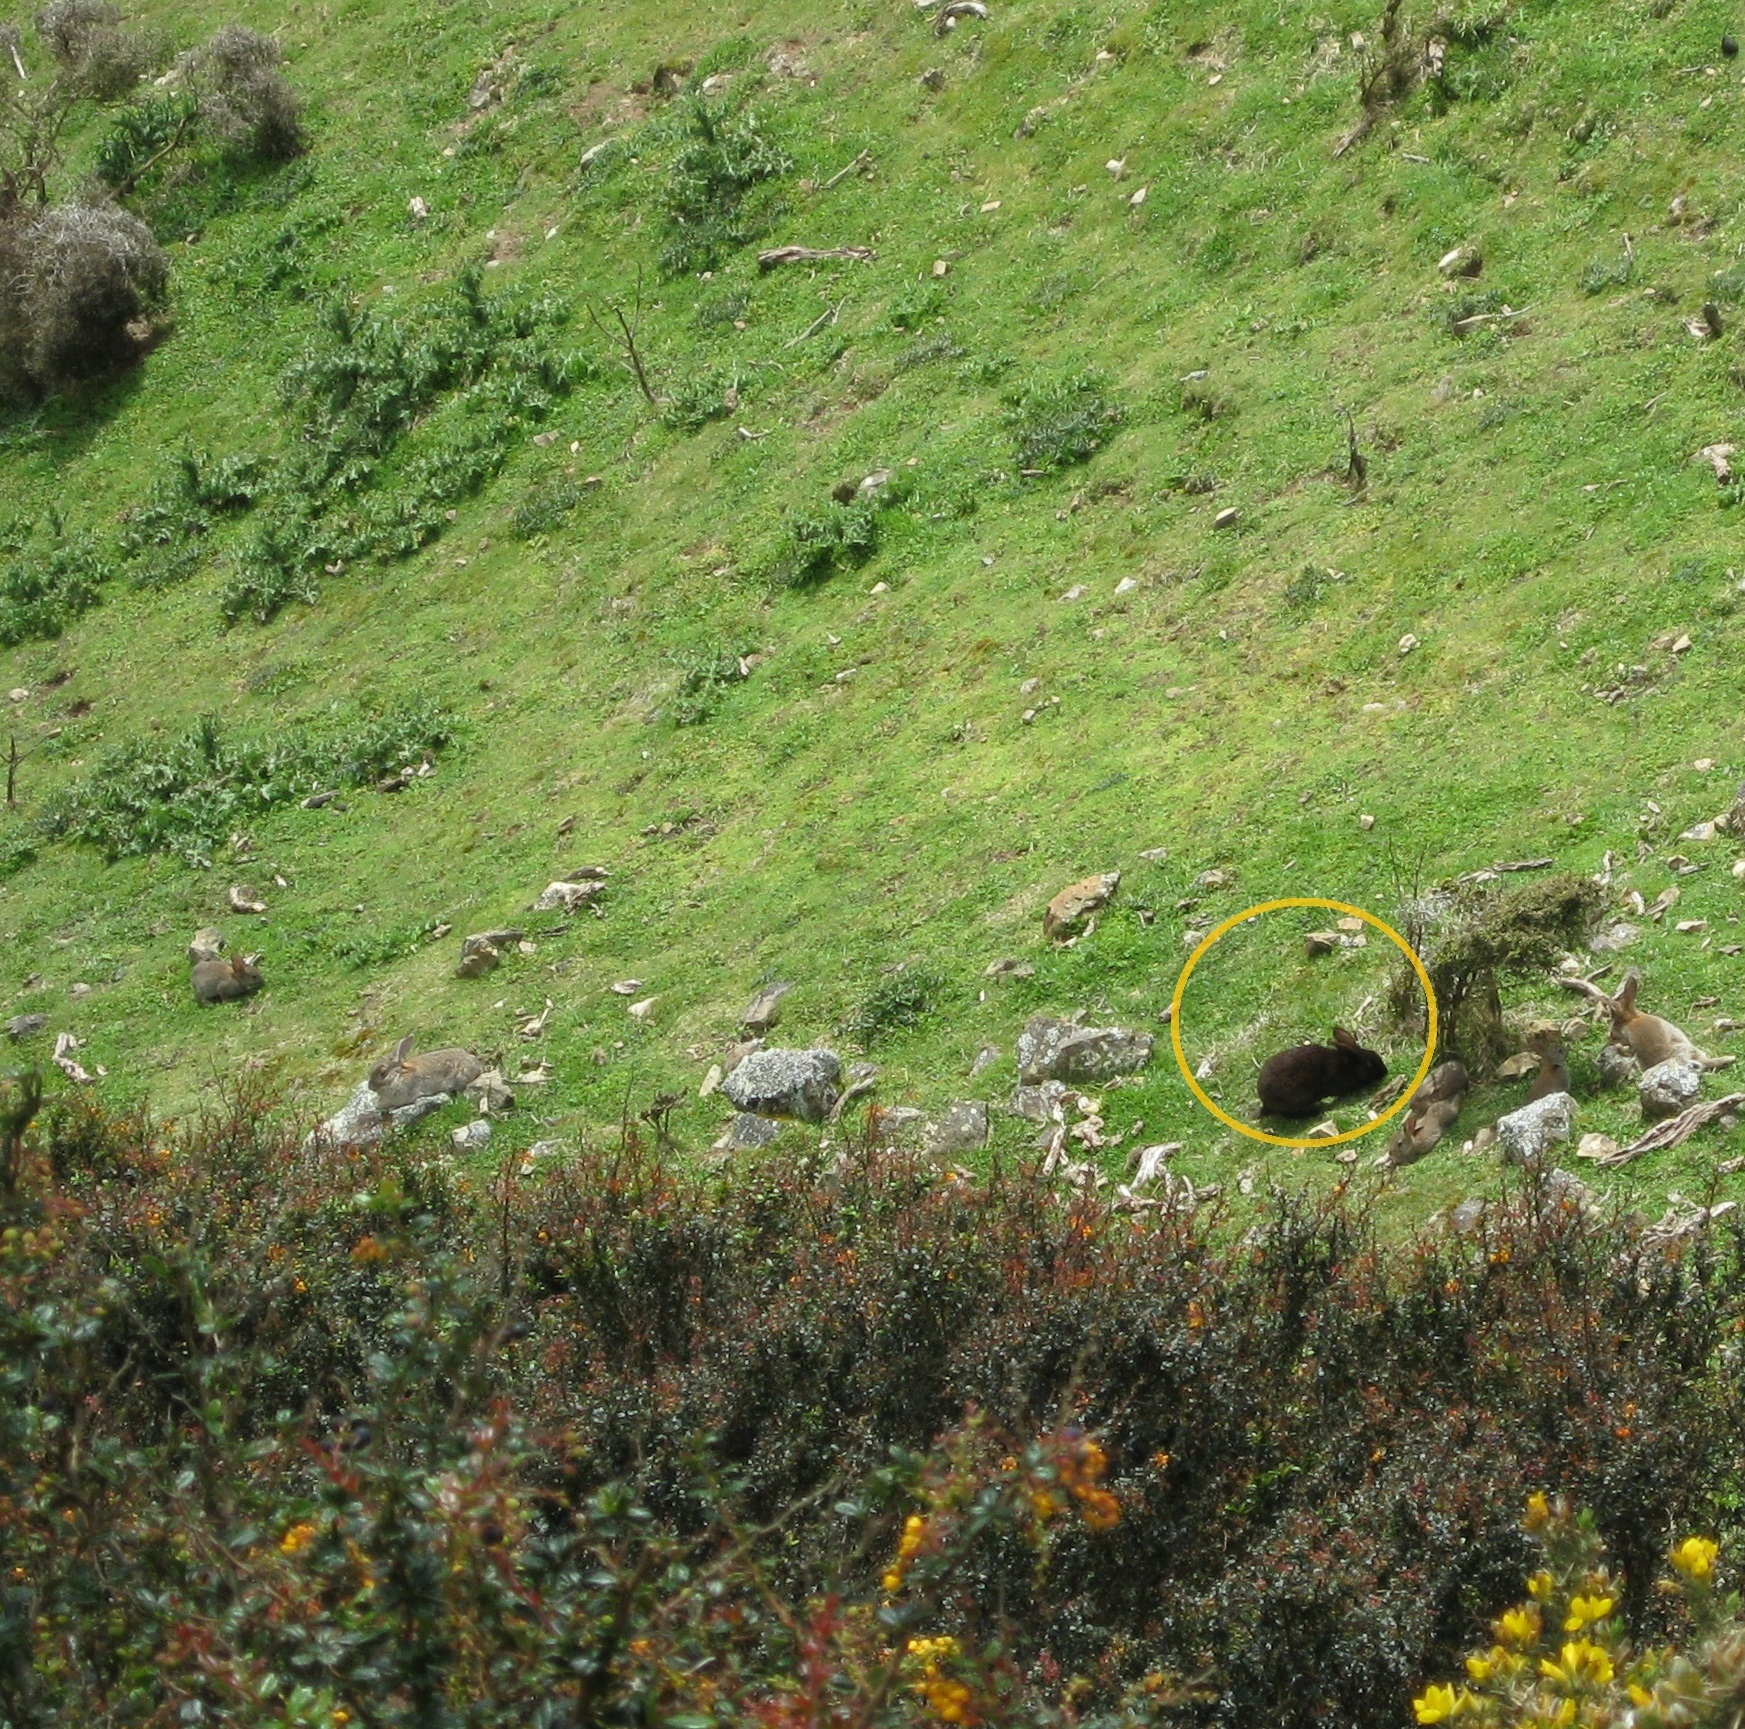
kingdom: Animalia
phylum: Chordata
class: Mammalia
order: Lagomorpha
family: Leporidae
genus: Oryctolagus
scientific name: Oryctolagus cuniculus
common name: European rabbit
